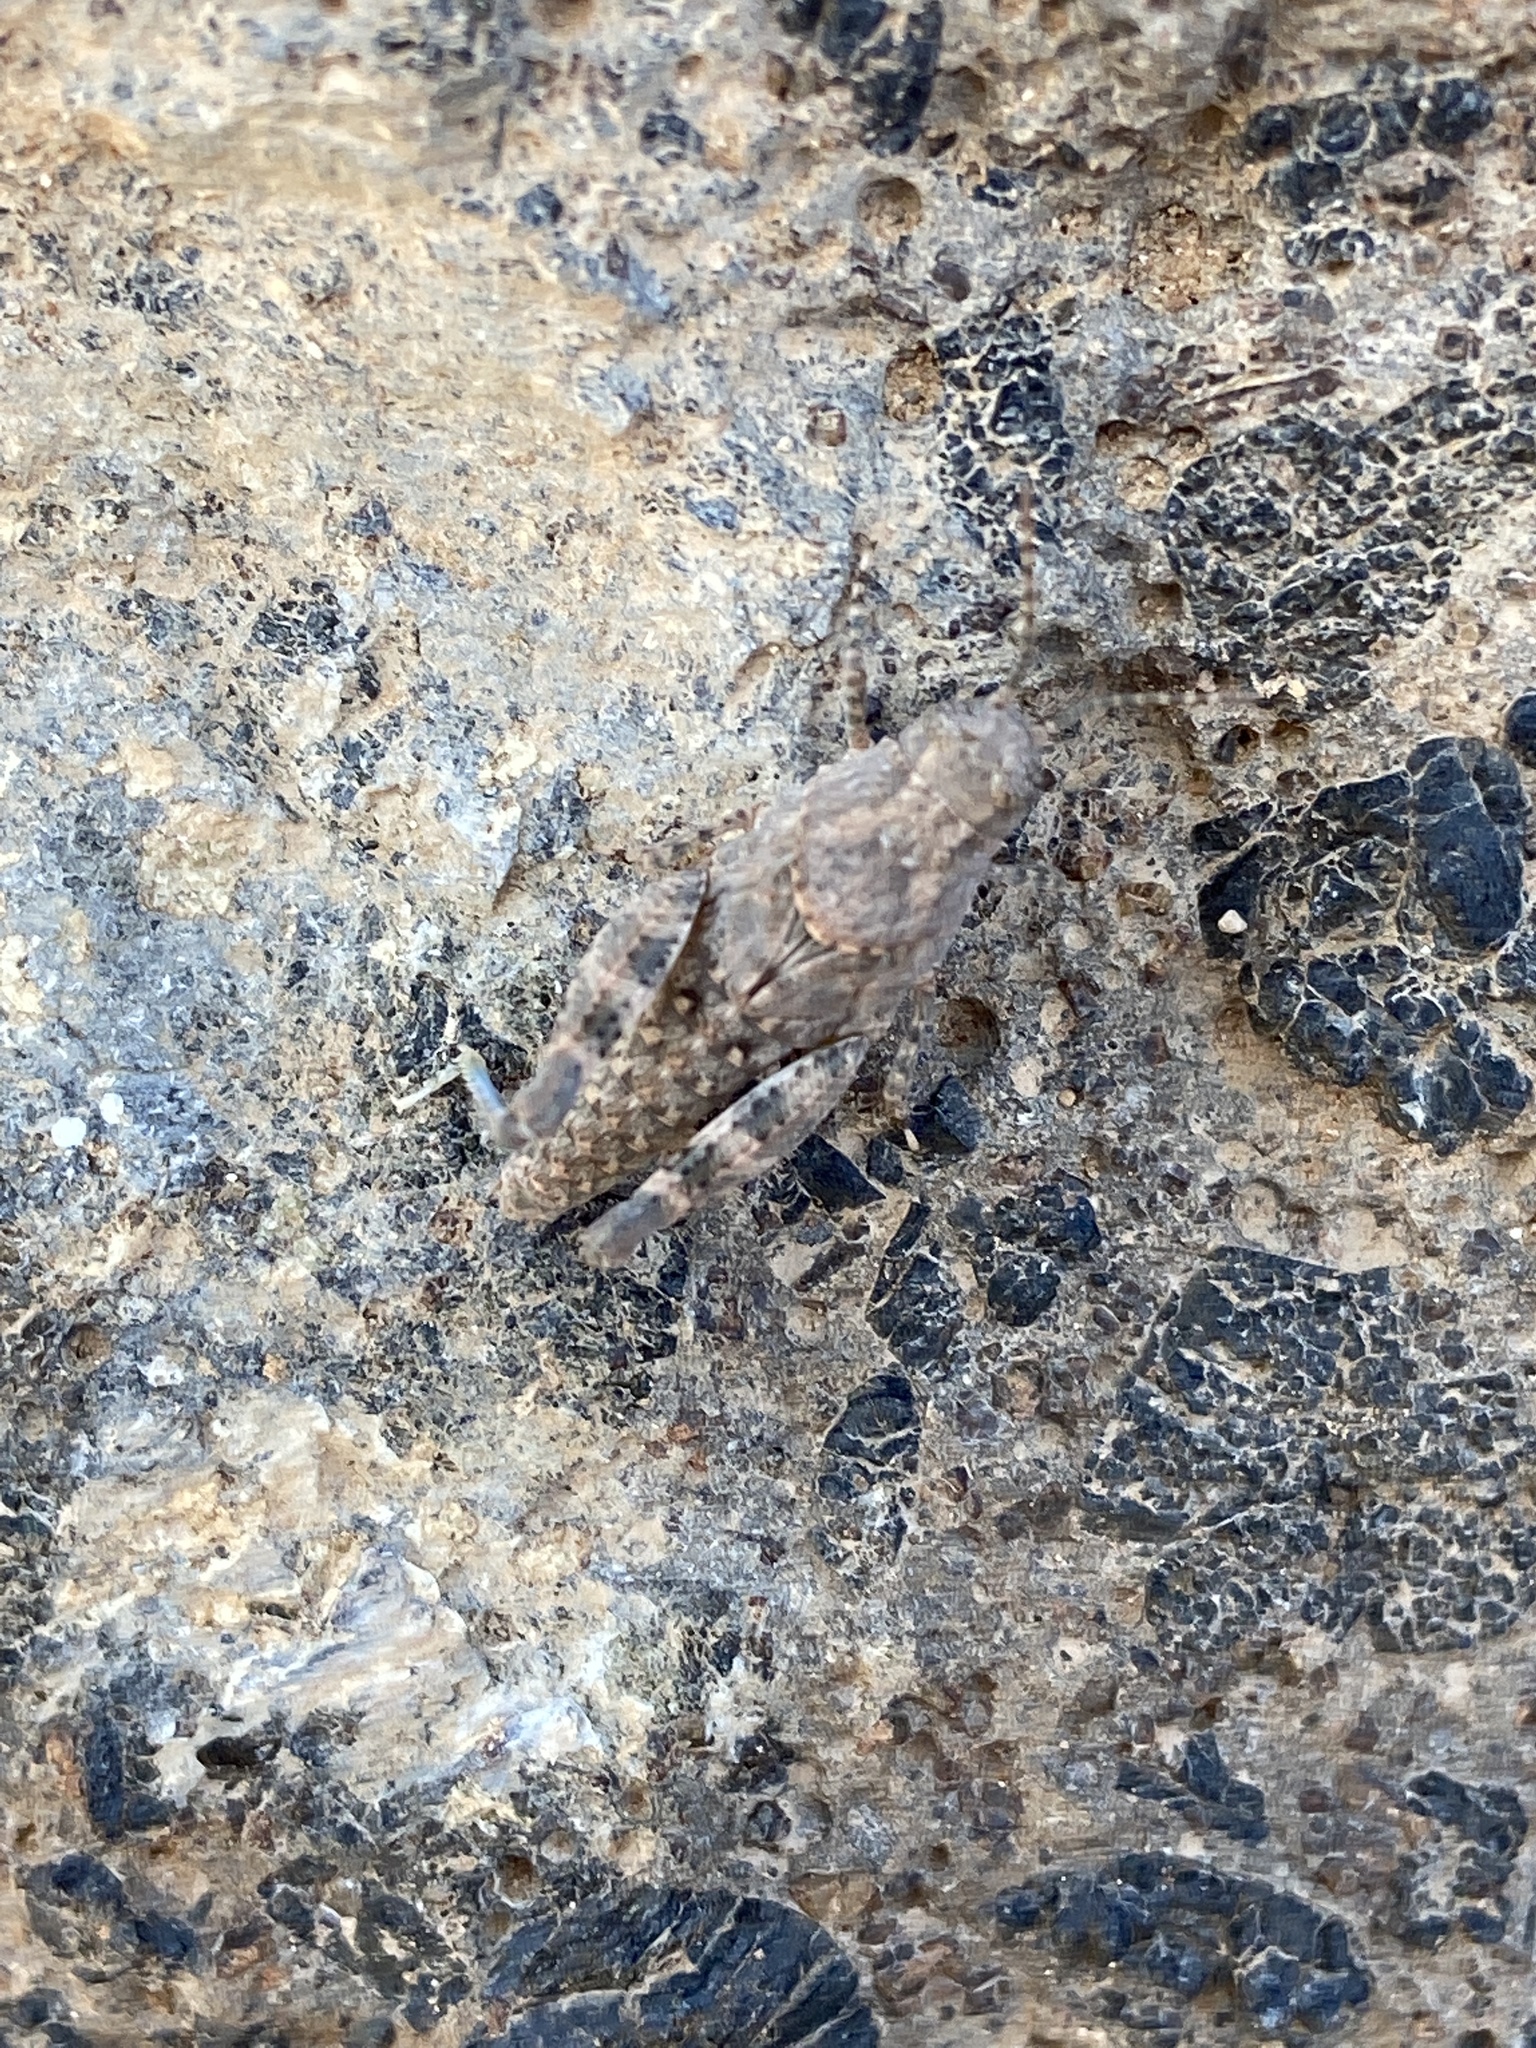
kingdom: Animalia
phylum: Arthropoda
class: Insecta
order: Orthoptera
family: Acrididae
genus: Sphingonotus
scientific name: Sphingonotus fuerteventurae
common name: Fuerteventura sand grasshopper
